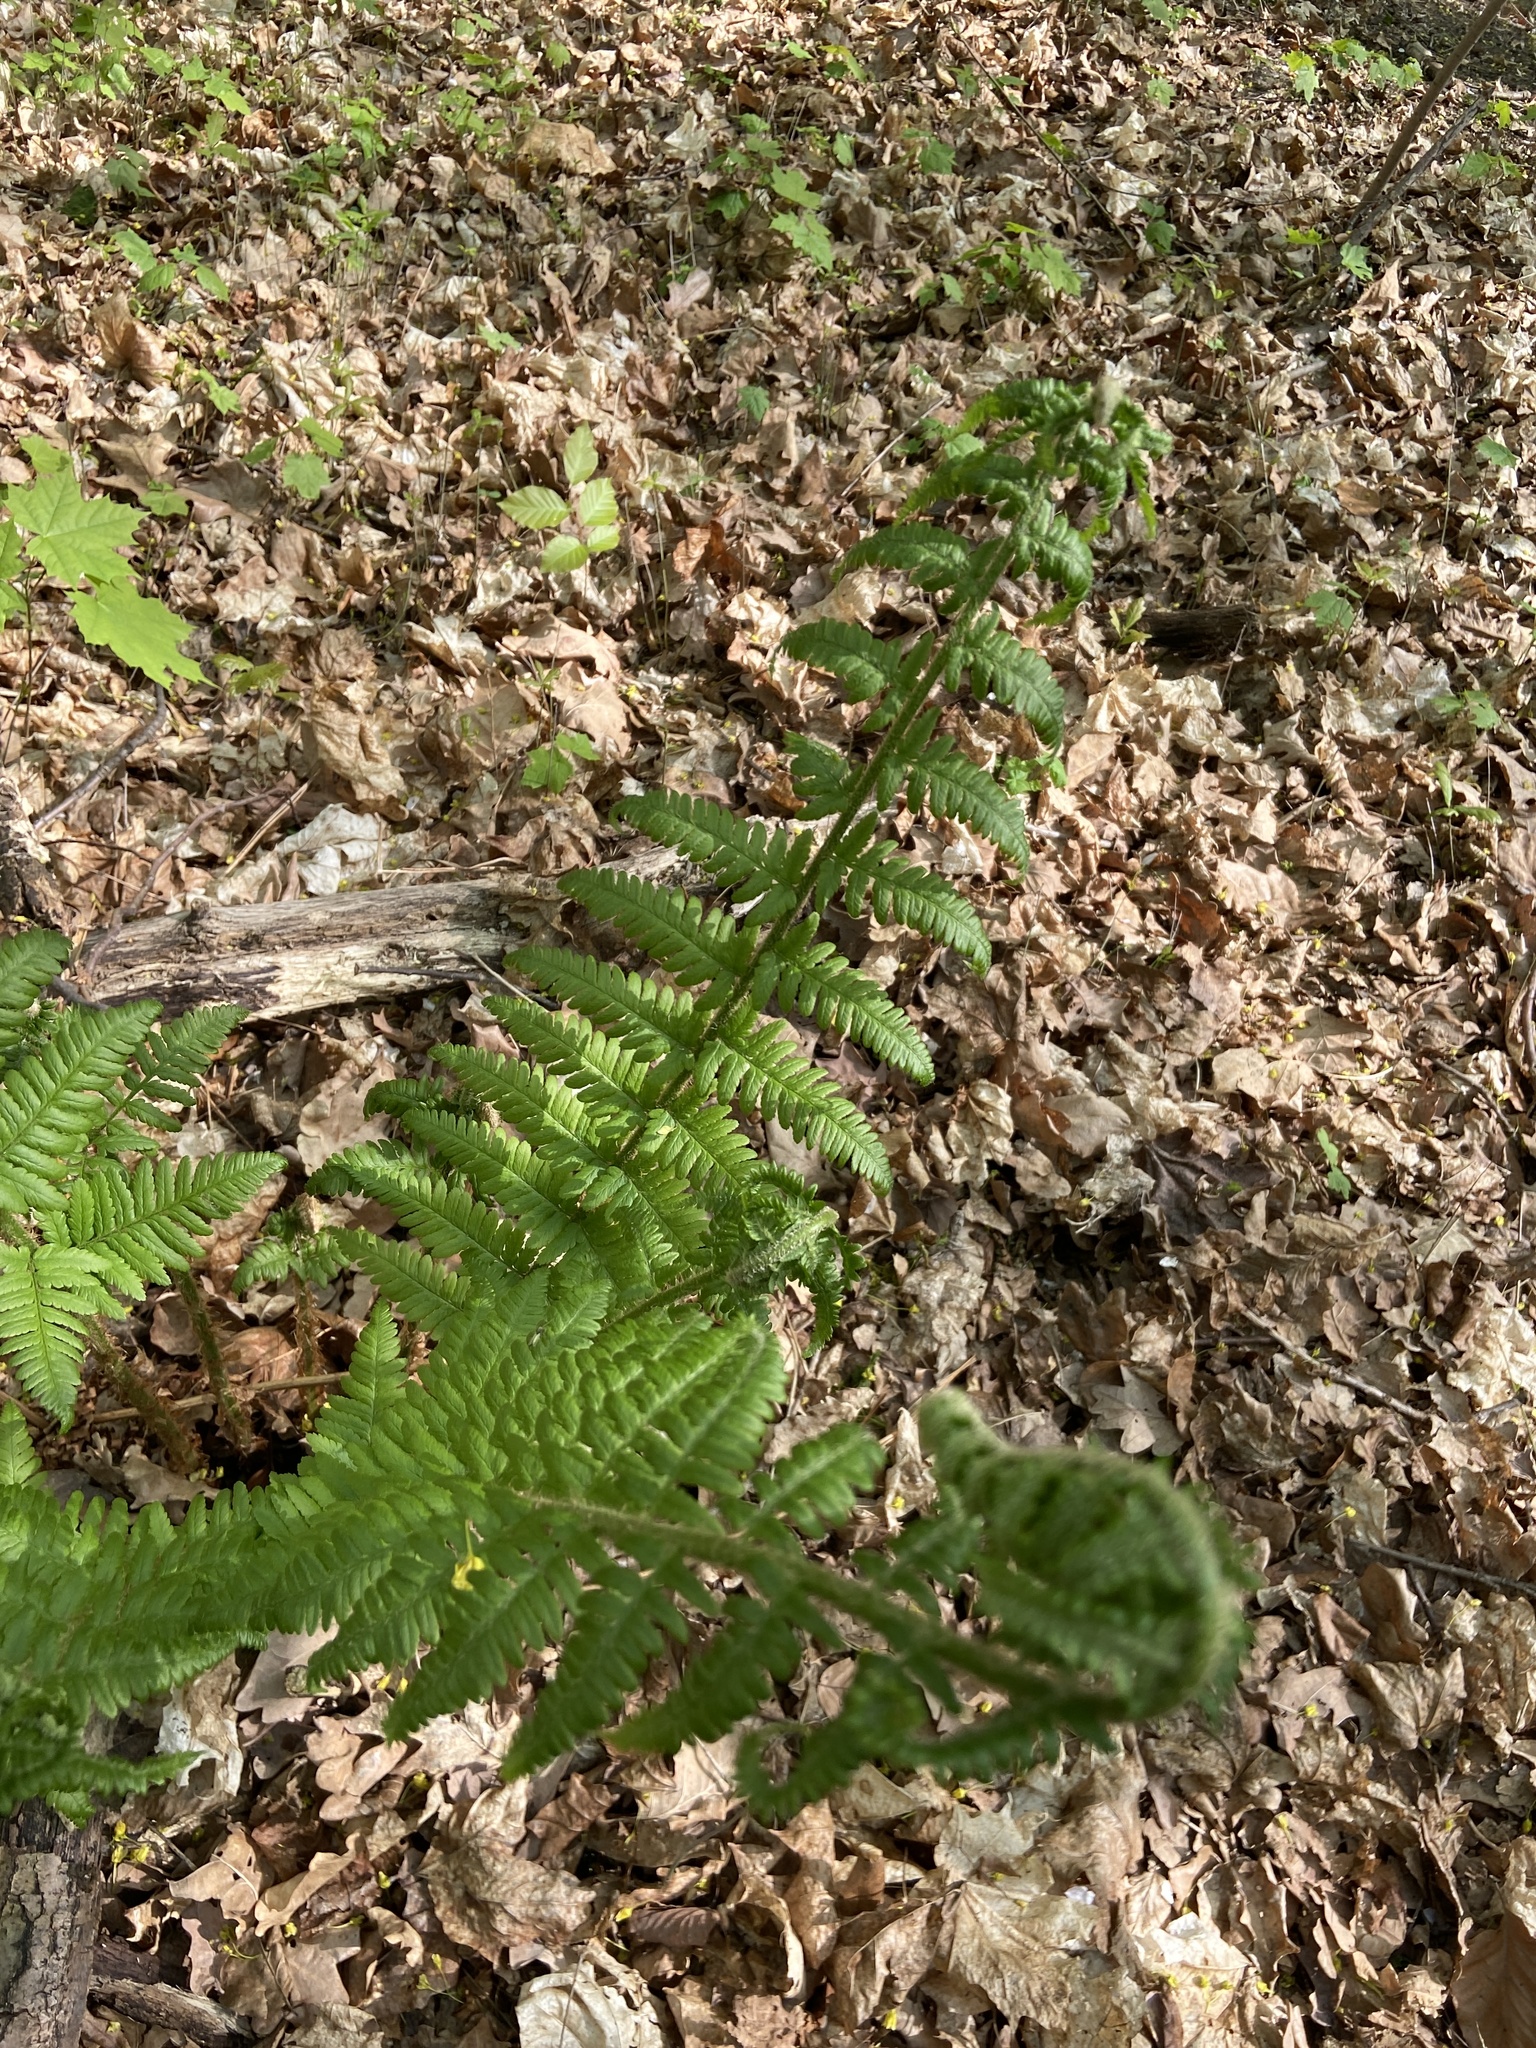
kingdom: Plantae
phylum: Tracheophyta
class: Polypodiopsida
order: Polypodiales
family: Dryopteridaceae
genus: Dryopteris
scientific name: Dryopteris filix-mas
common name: Male fern
